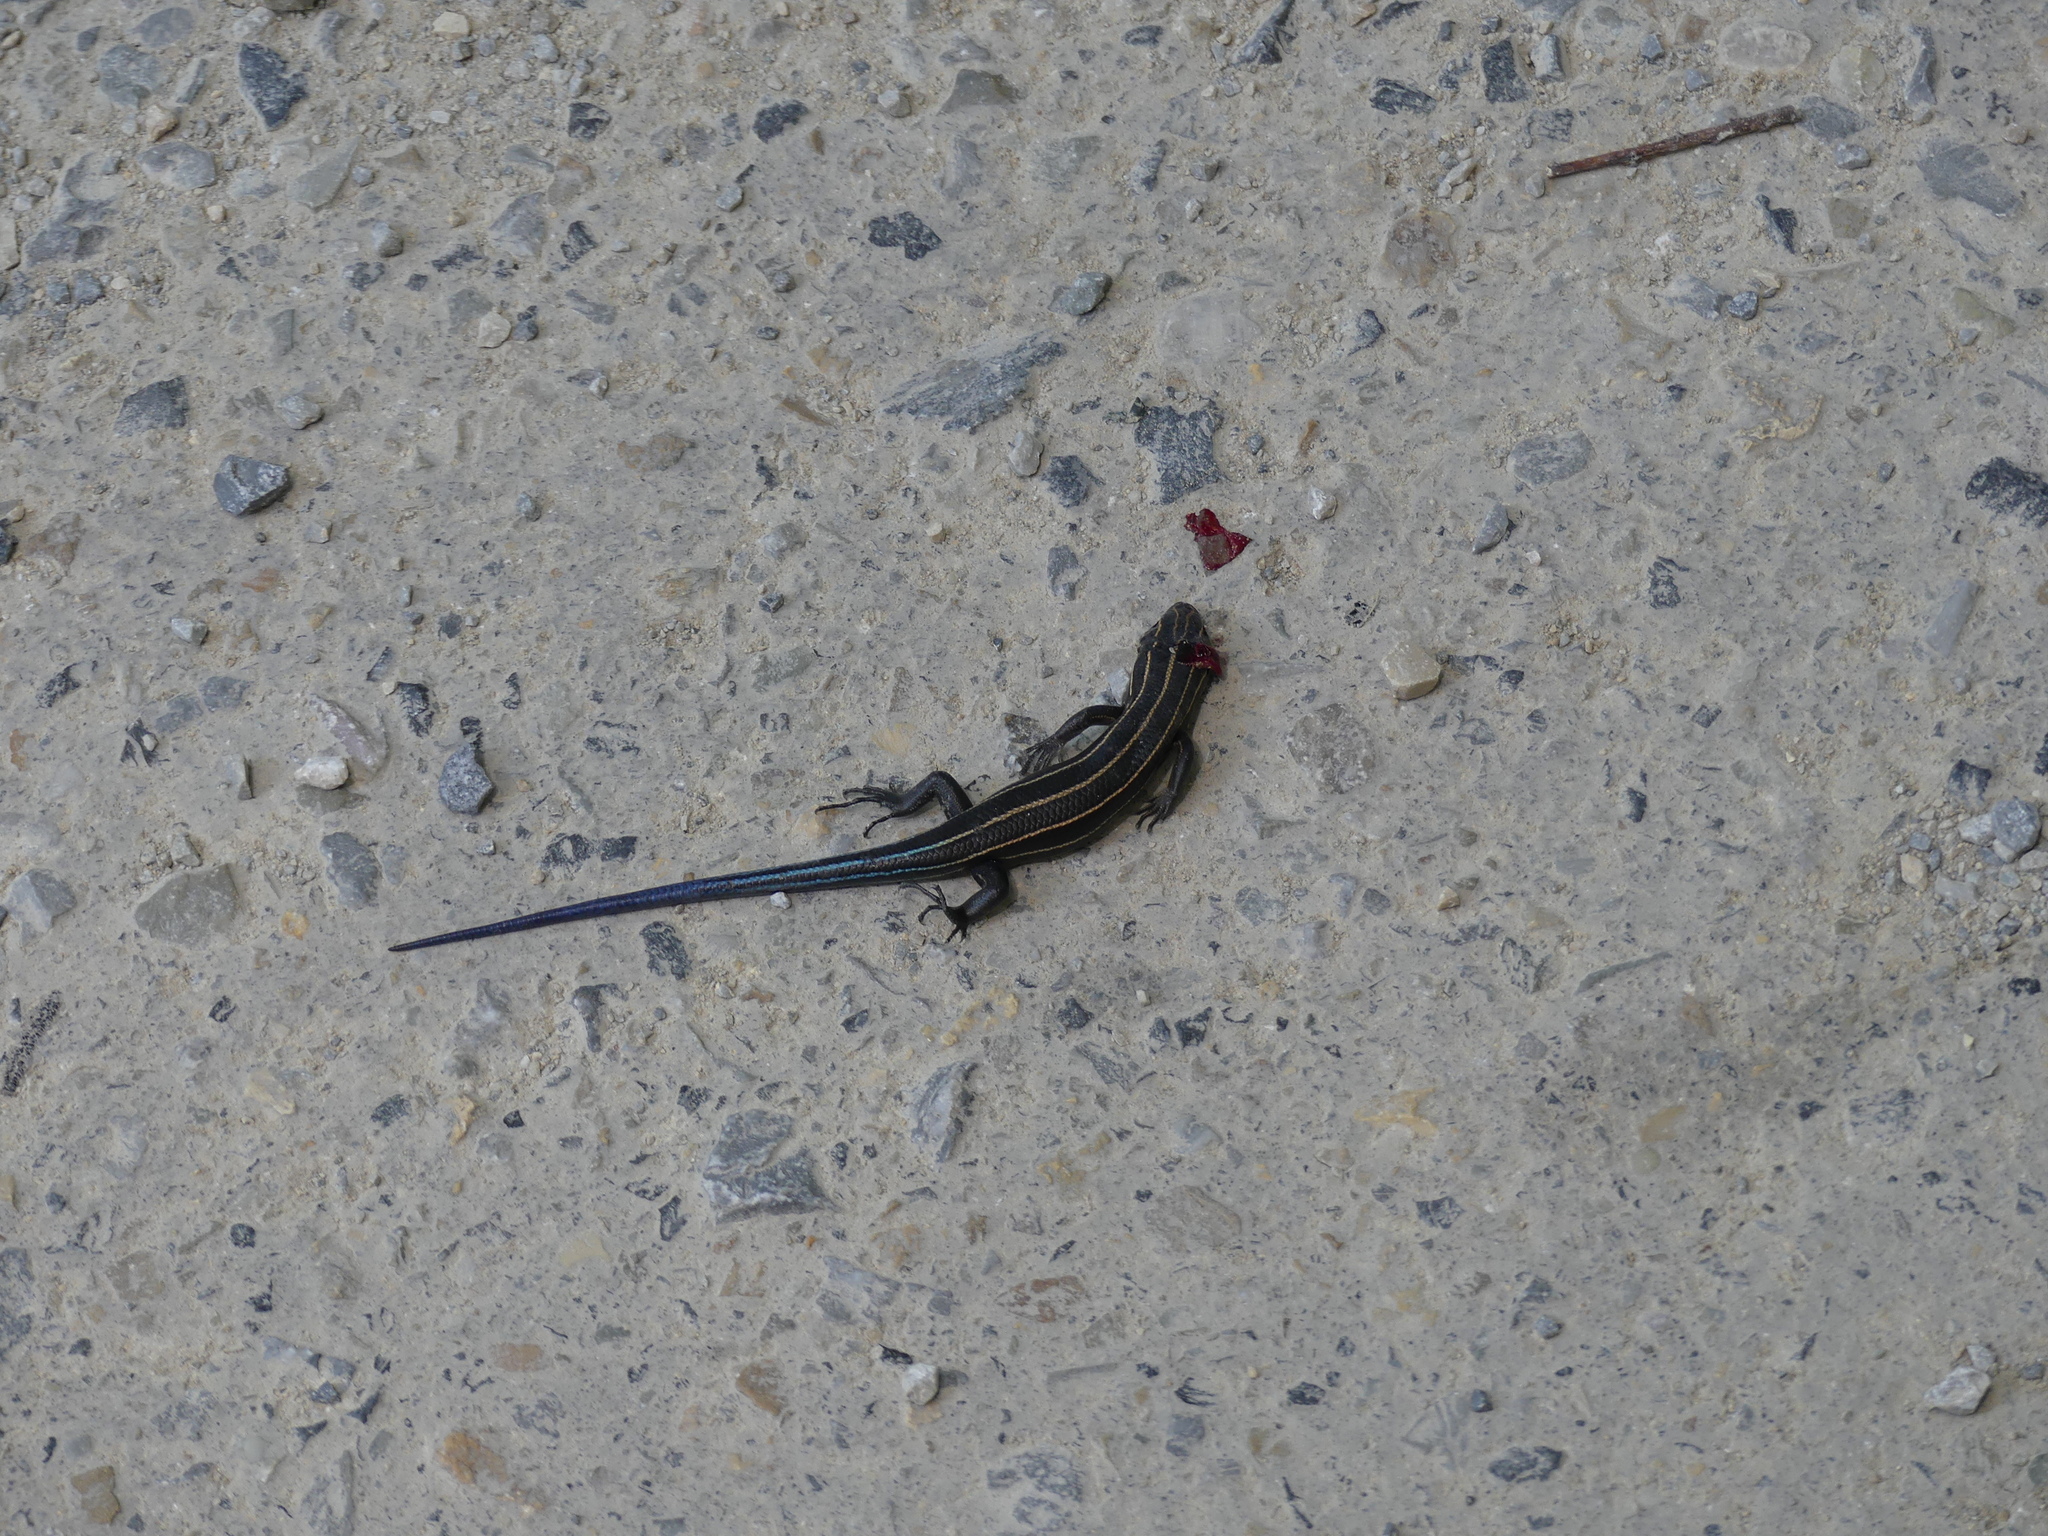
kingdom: Animalia
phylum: Chordata
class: Squamata
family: Scincidae
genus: Plestiodon
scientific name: Plestiodon laticeps
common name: Broadhead skink
